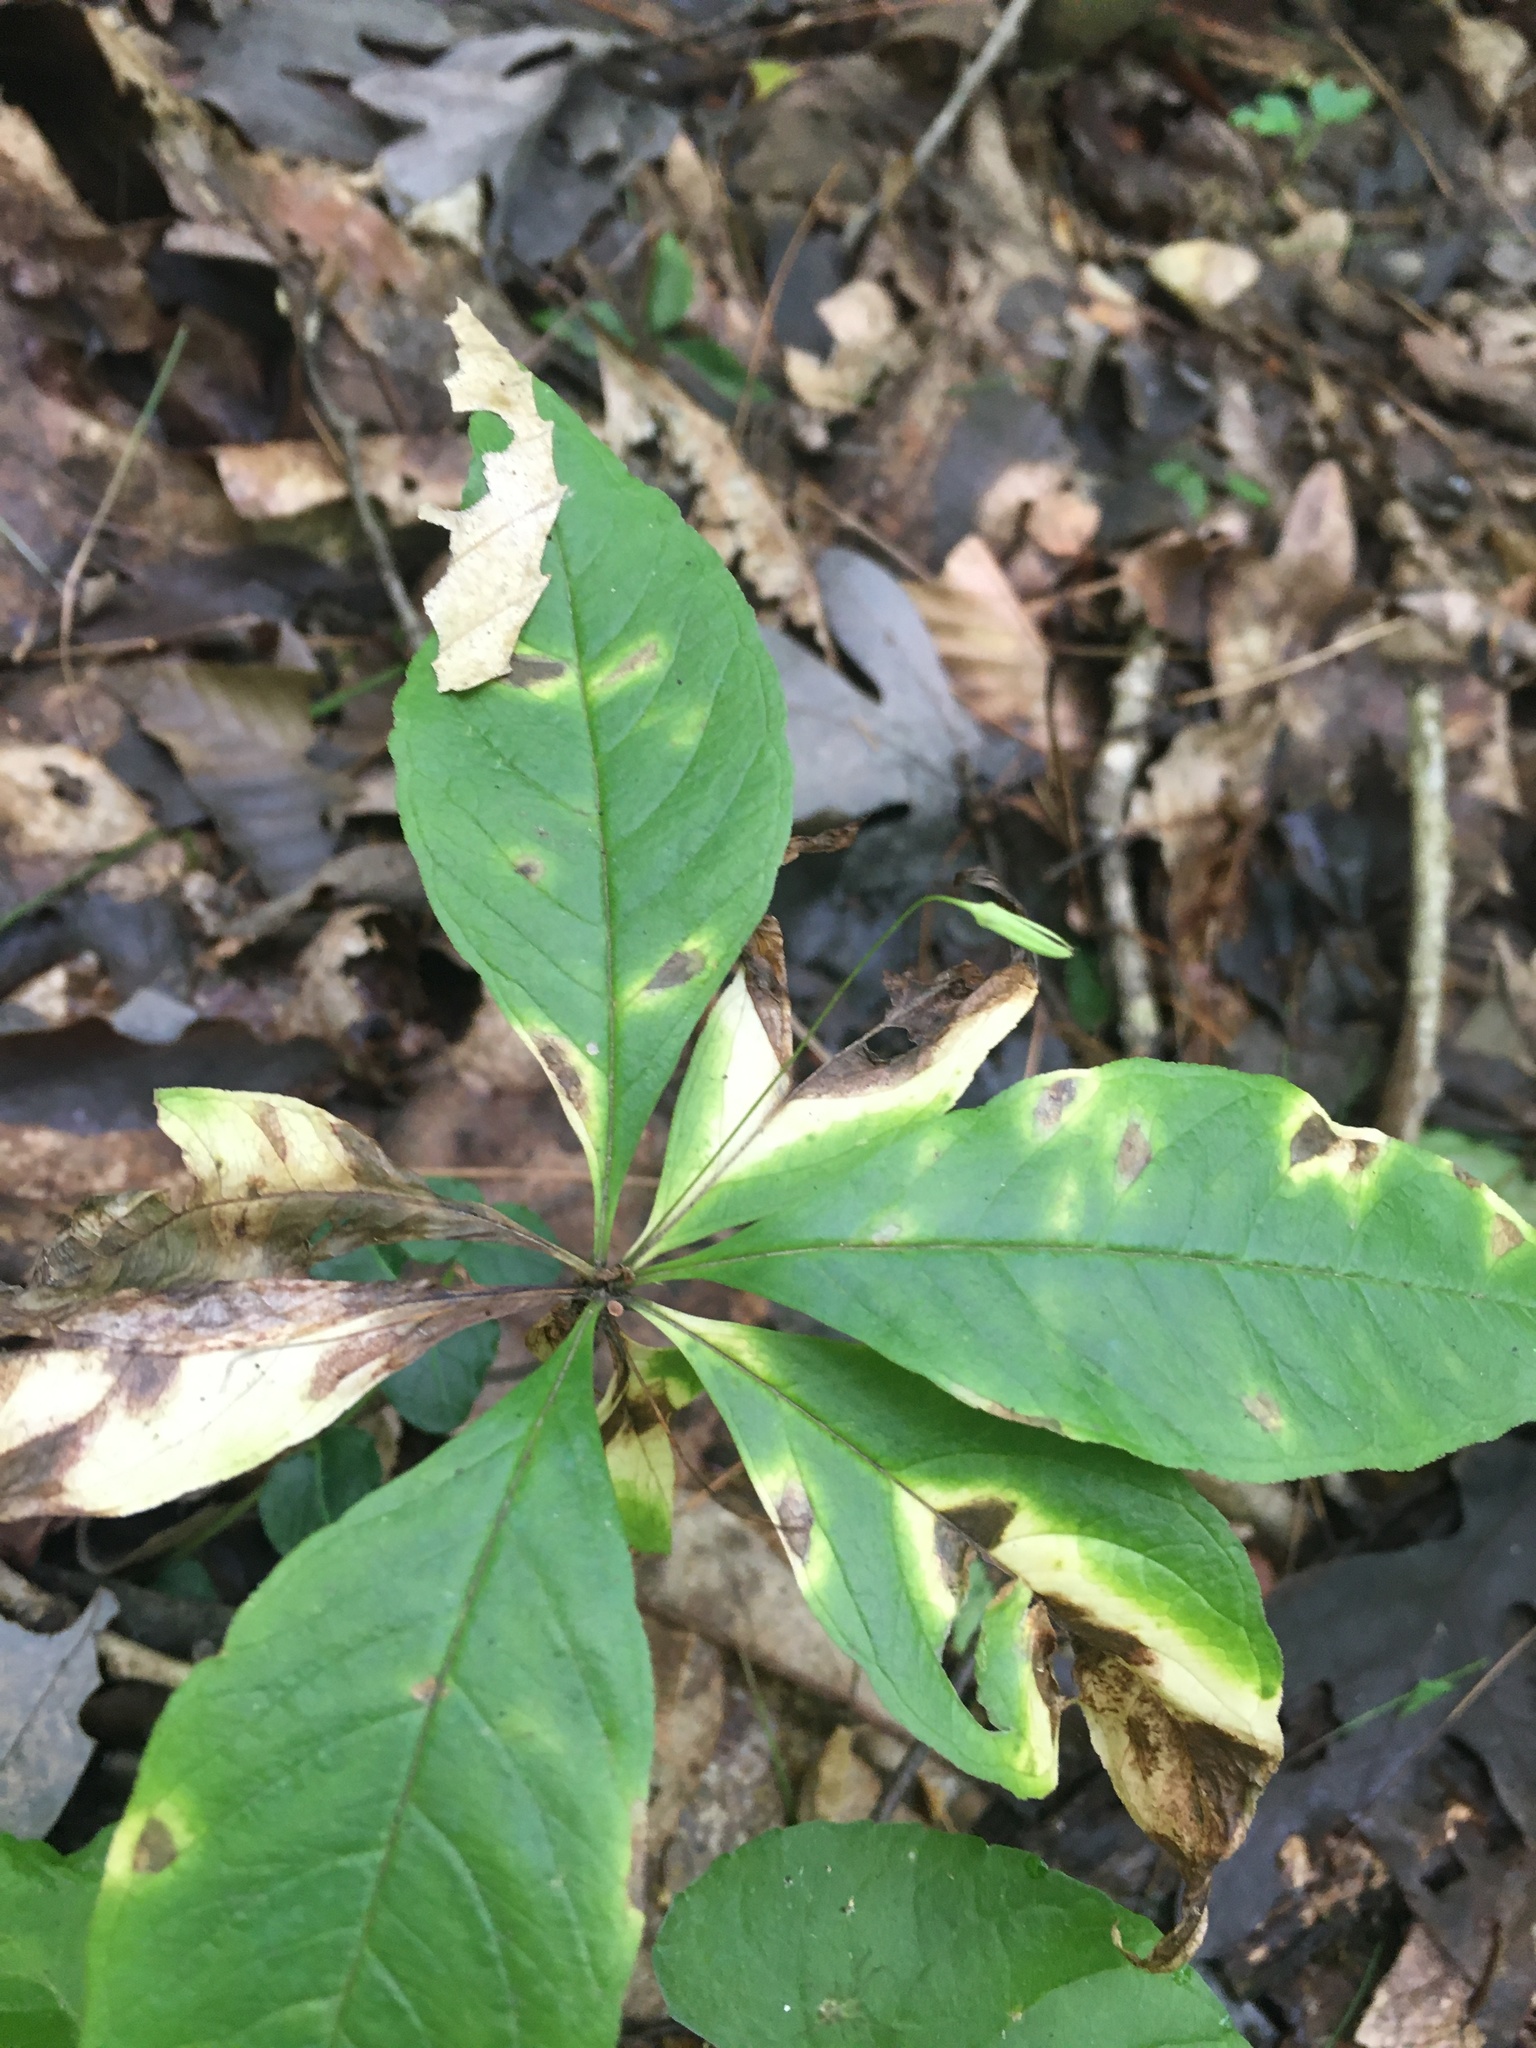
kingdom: Plantae
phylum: Tracheophyta
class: Magnoliopsida
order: Ericales
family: Primulaceae
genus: Lysimachia
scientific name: Lysimachia borealis
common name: American starflower
